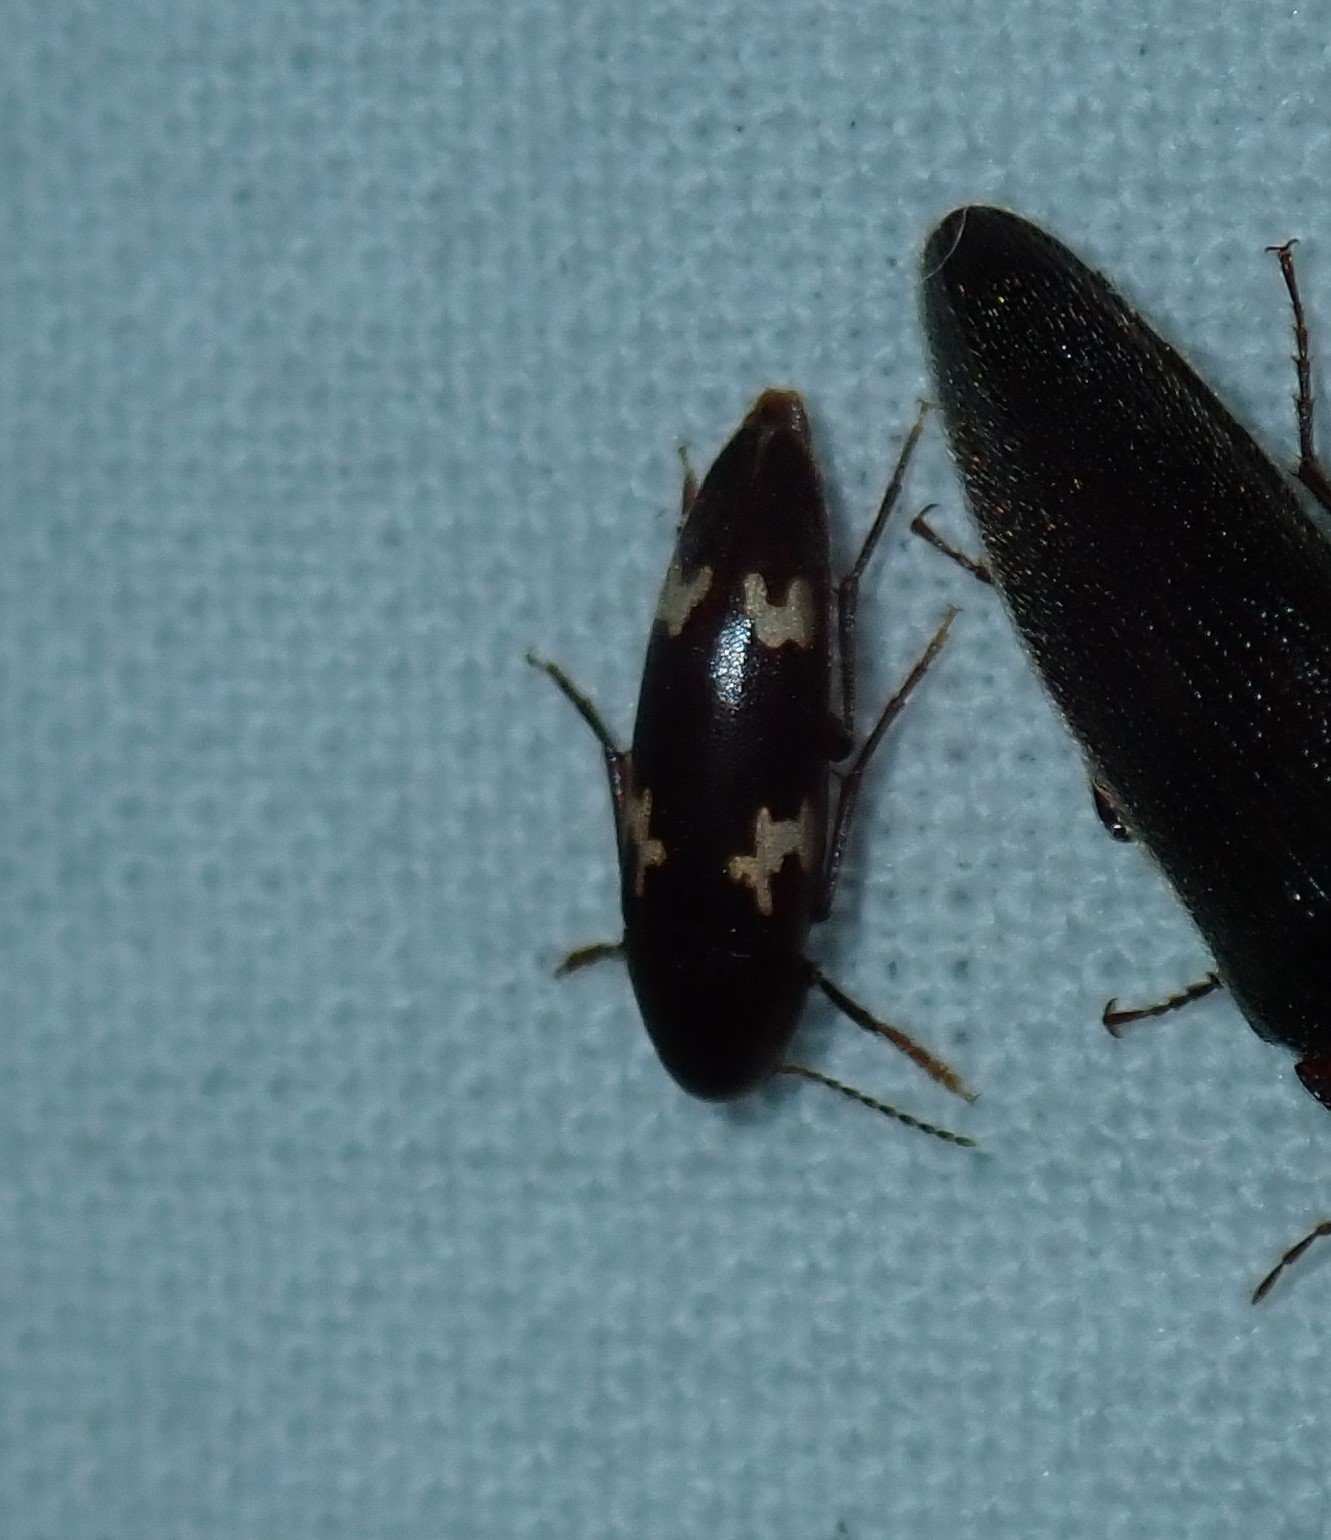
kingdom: Animalia
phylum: Arthropoda
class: Insecta
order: Coleoptera
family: Melandryidae
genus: Dircaea
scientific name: Dircaea liturata
